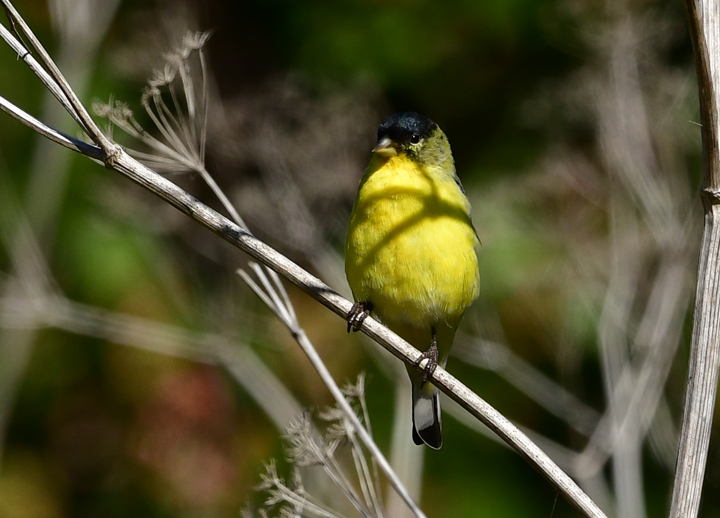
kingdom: Animalia
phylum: Chordata
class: Aves
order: Passeriformes
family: Fringillidae
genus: Spinus
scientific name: Spinus psaltria
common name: Lesser goldfinch
